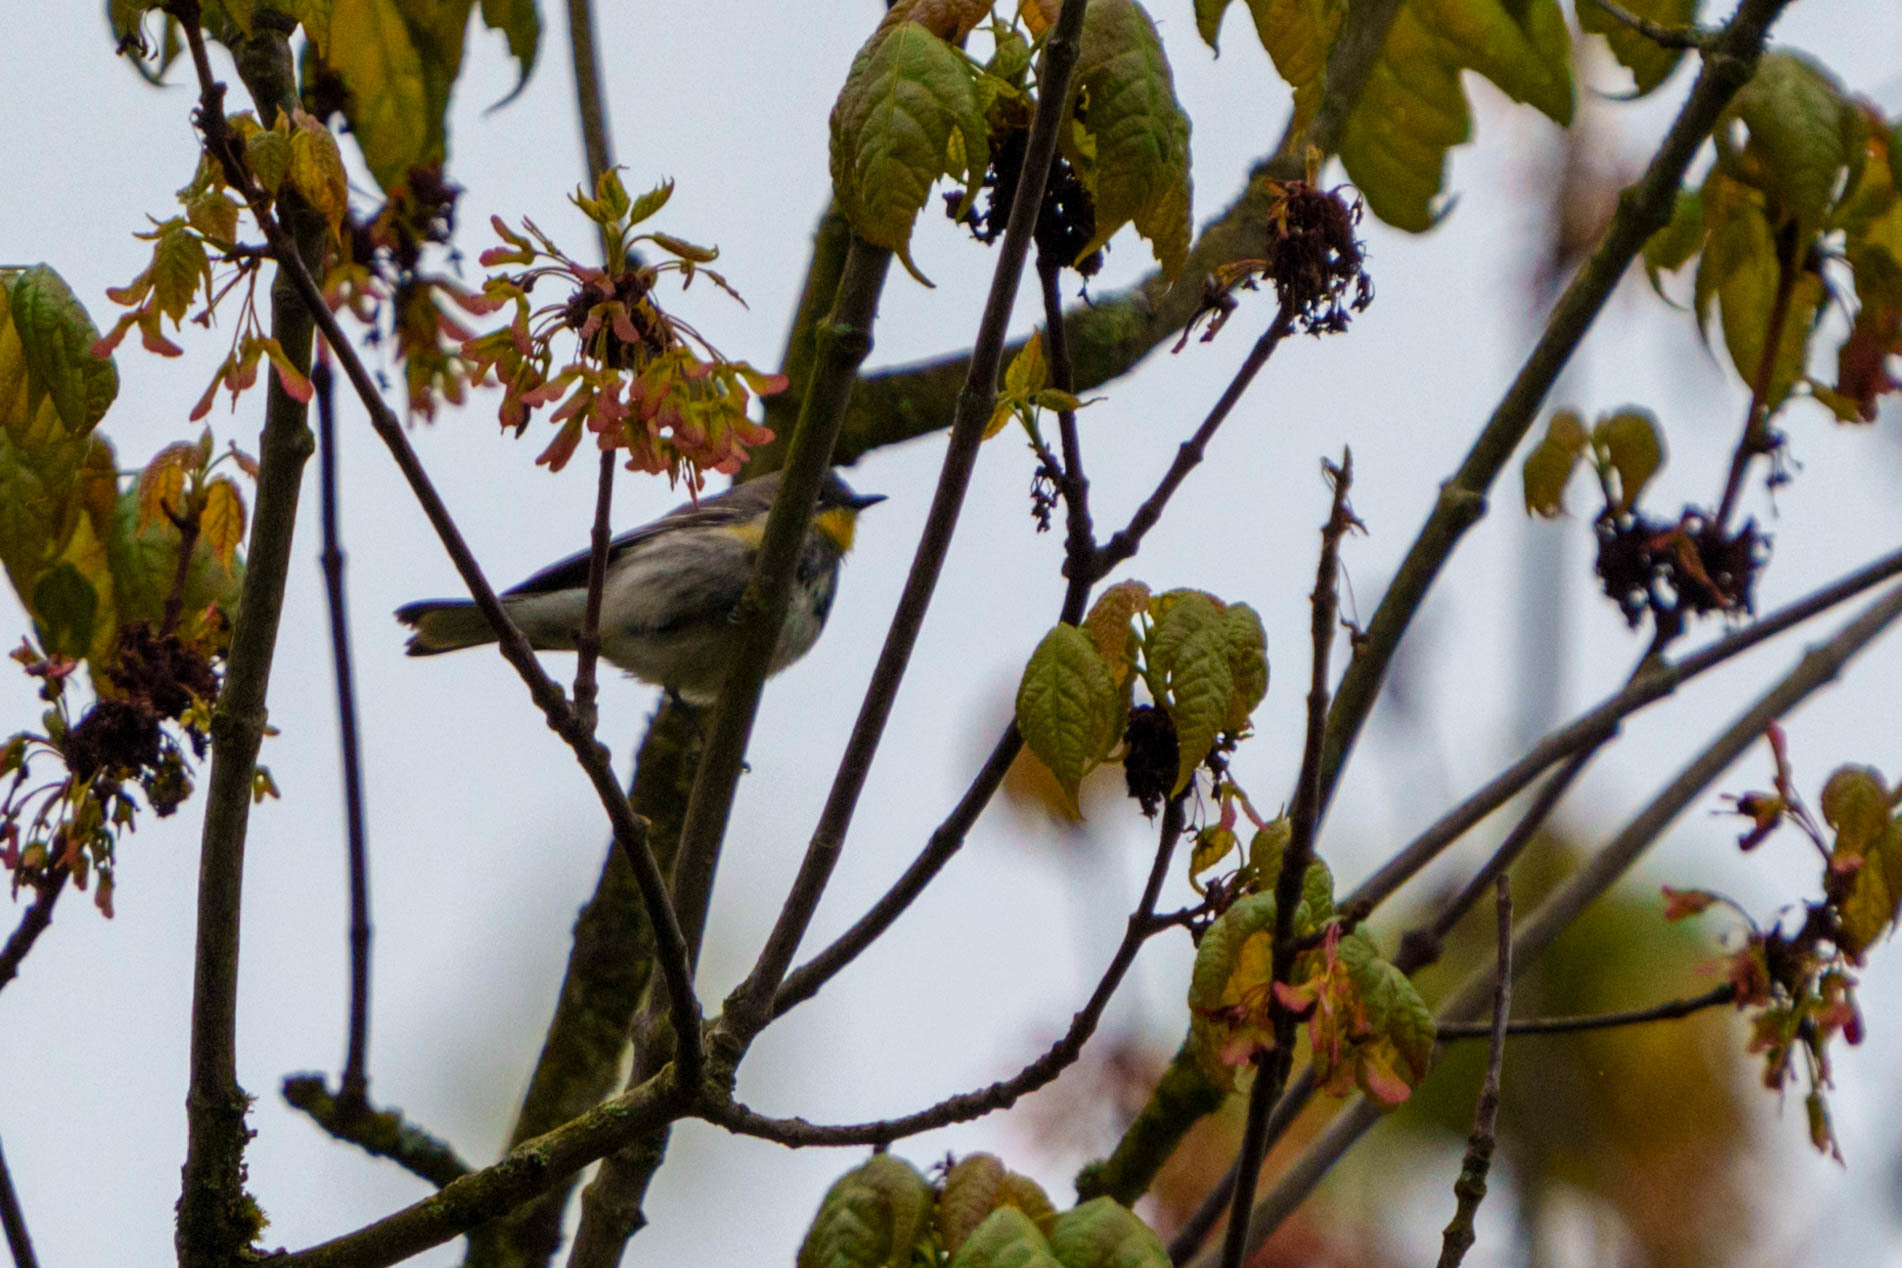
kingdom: Animalia
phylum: Chordata
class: Aves
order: Passeriformes
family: Parulidae
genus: Setophaga
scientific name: Setophaga auduboni
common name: Audubon's warbler
